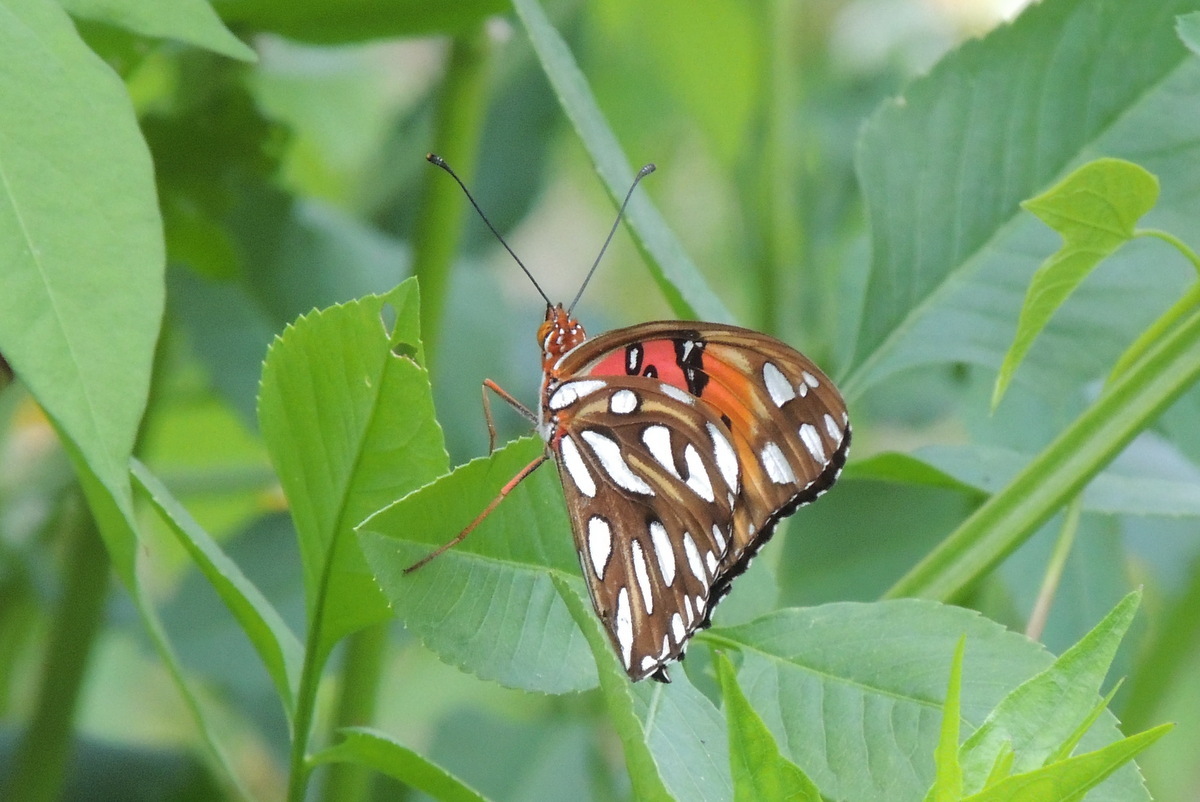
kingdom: Animalia
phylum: Arthropoda
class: Insecta
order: Lepidoptera
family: Nymphalidae
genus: Dione
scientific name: Dione vanillae
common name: Gulf fritillary
